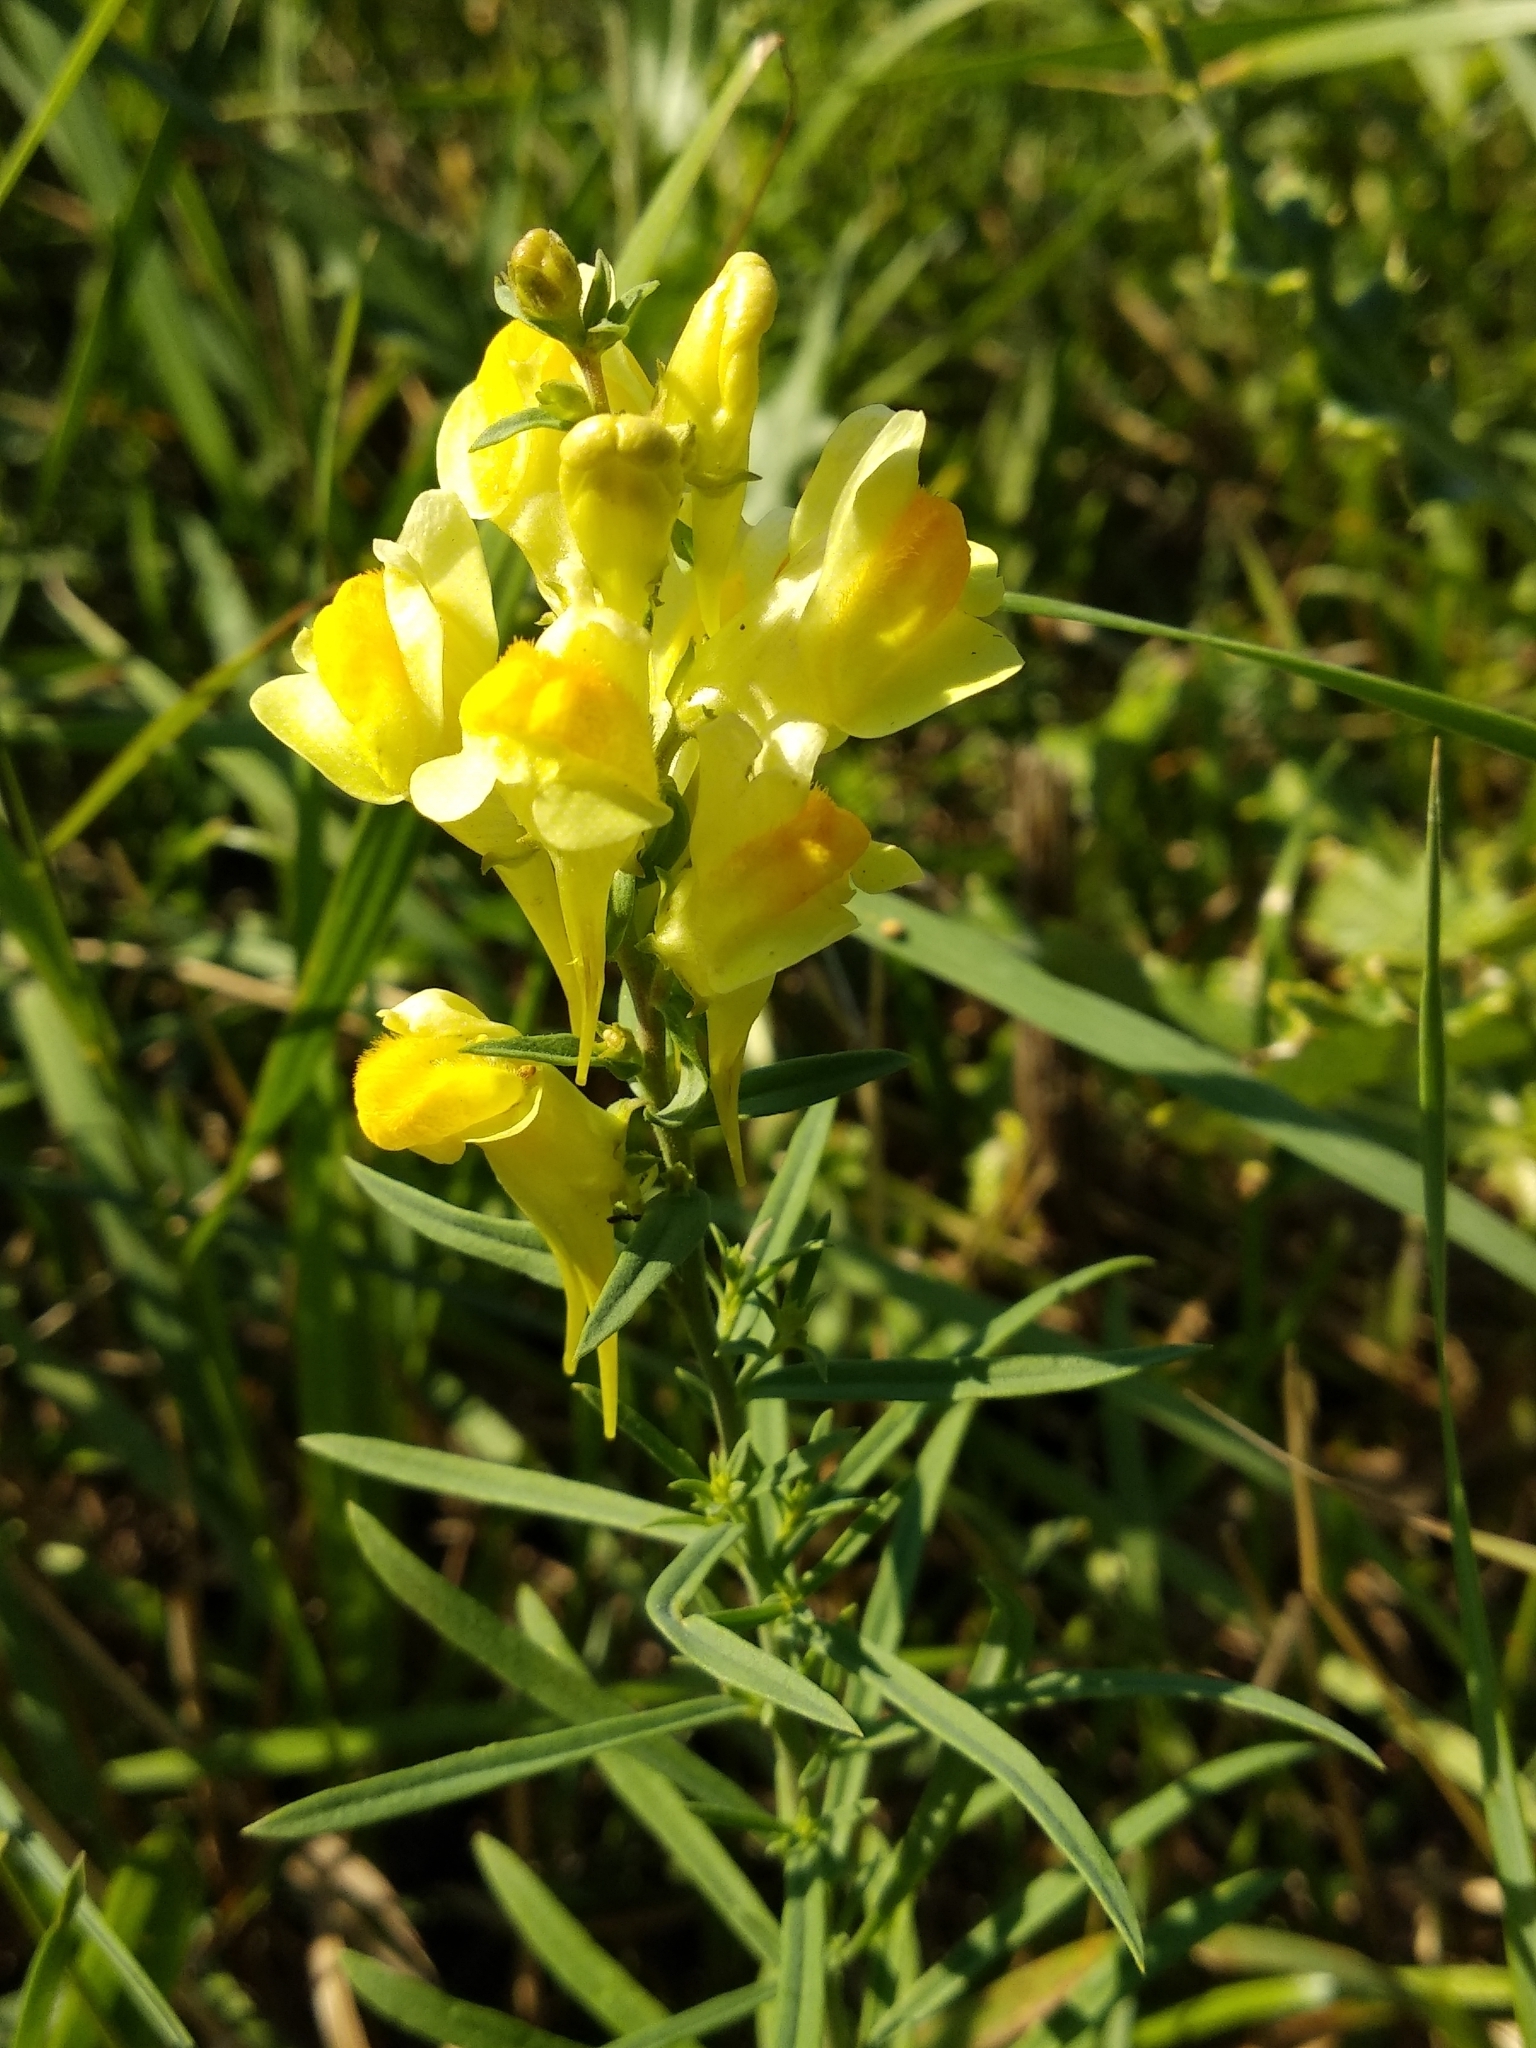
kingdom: Plantae
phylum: Tracheophyta
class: Magnoliopsida
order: Lamiales
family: Plantaginaceae
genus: Linaria
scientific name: Linaria vulgaris
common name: Butter and eggs
